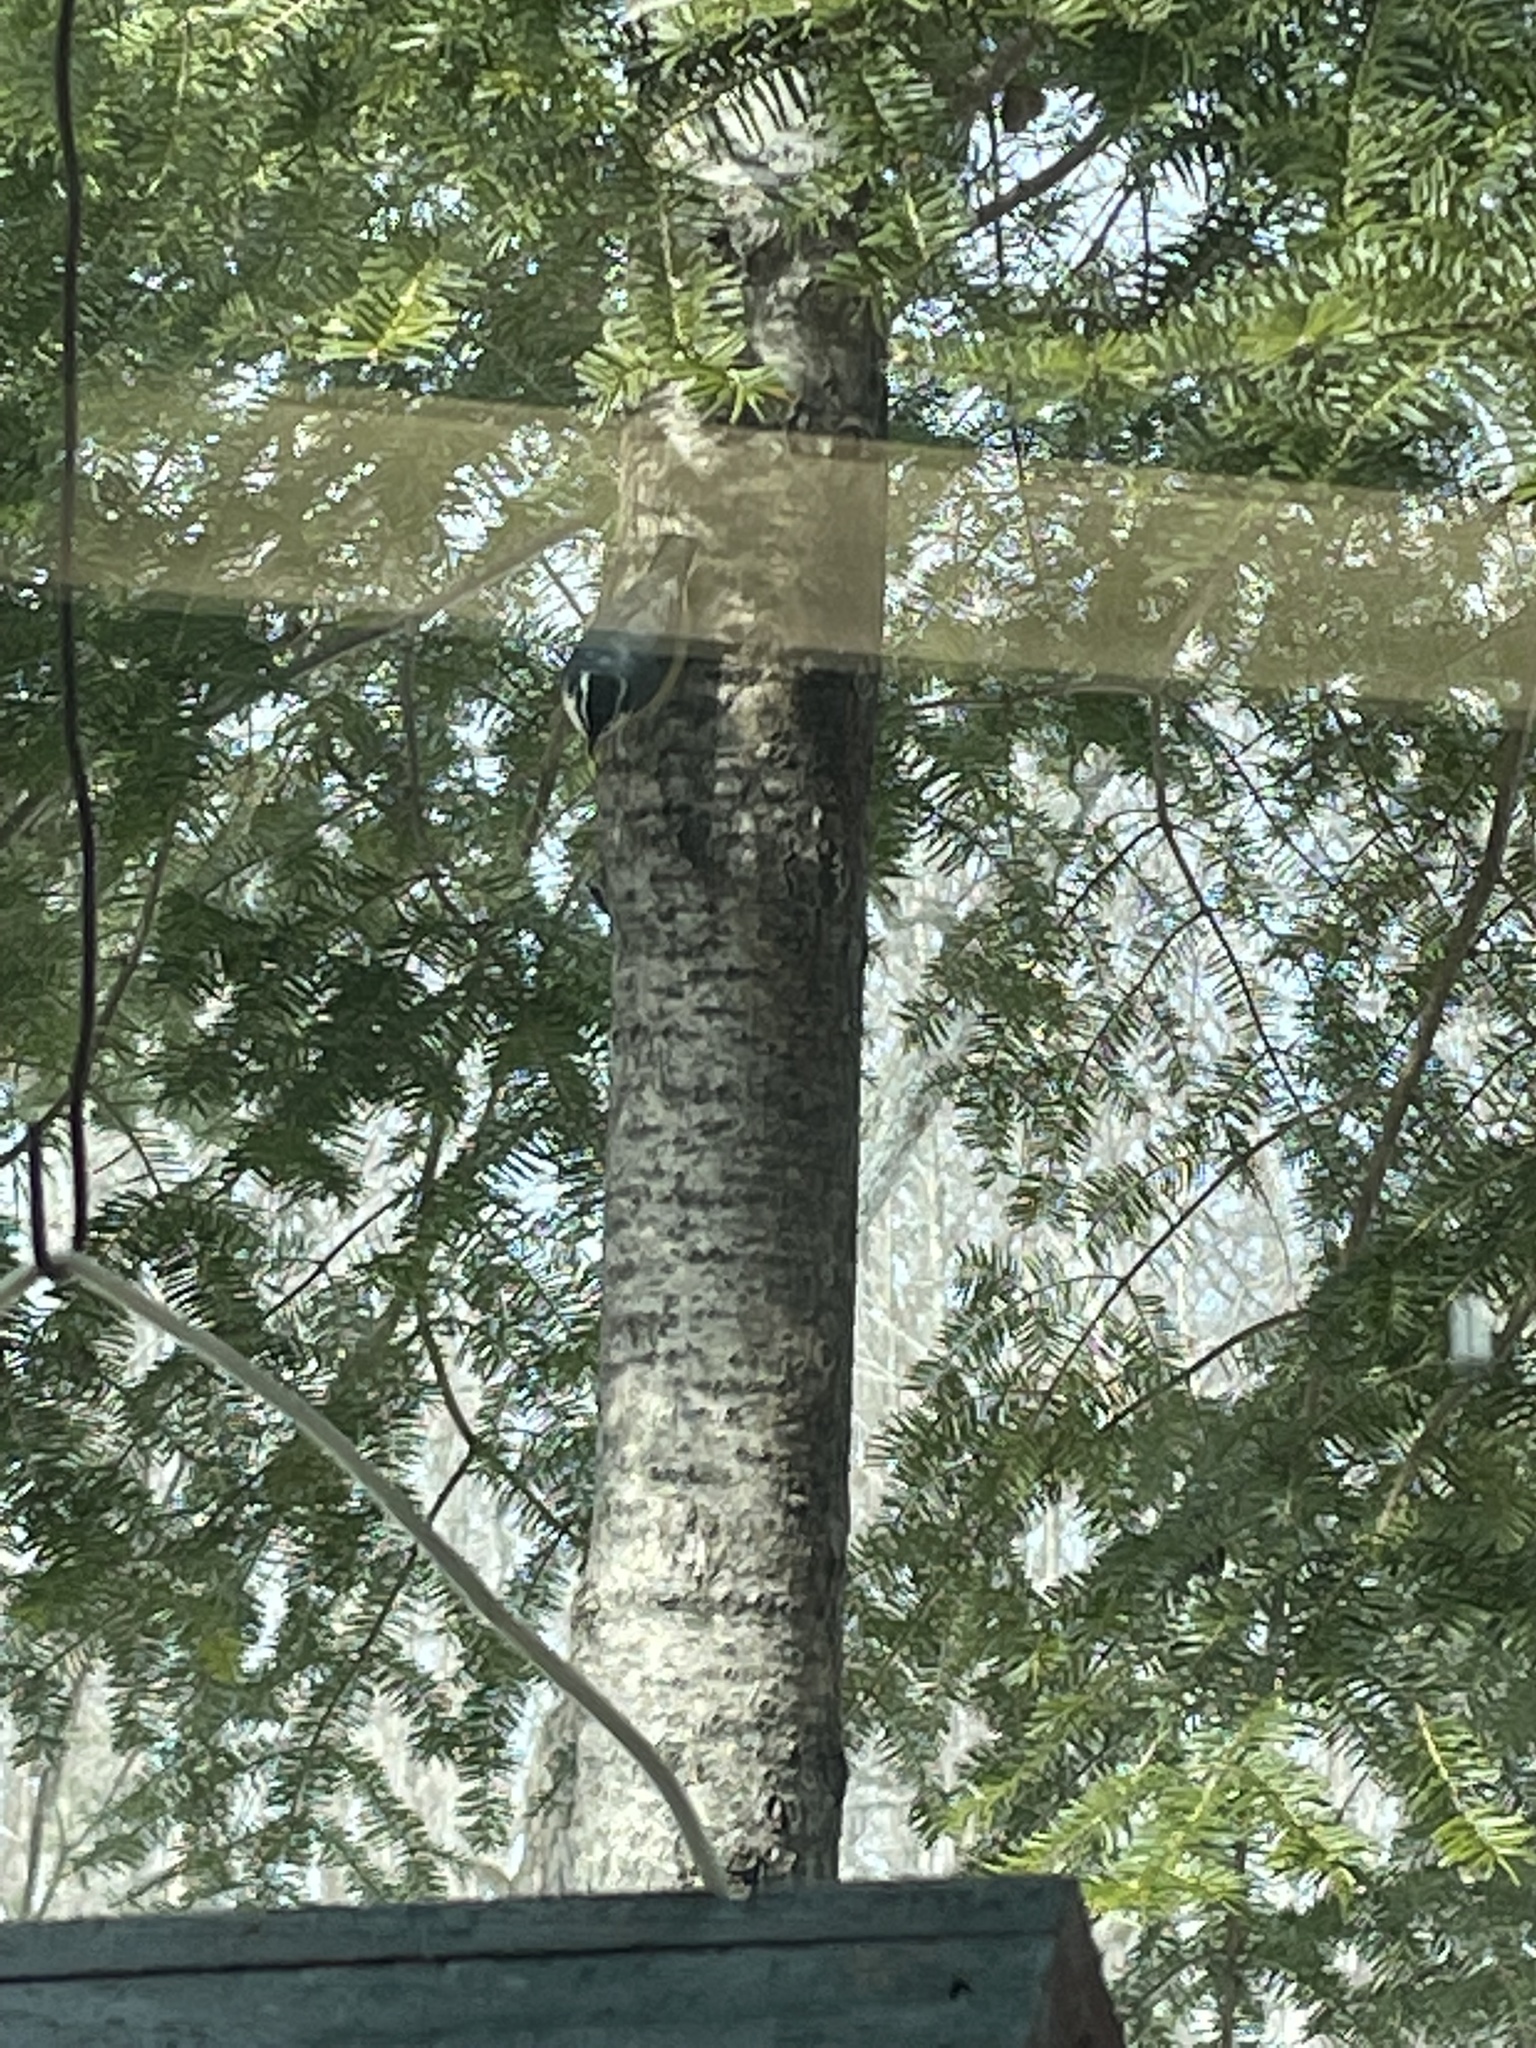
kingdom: Animalia
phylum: Chordata
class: Aves
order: Passeriformes
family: Sittidae
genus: Sitta
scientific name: Sitta canadensis
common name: Red-breasted nuthatch
